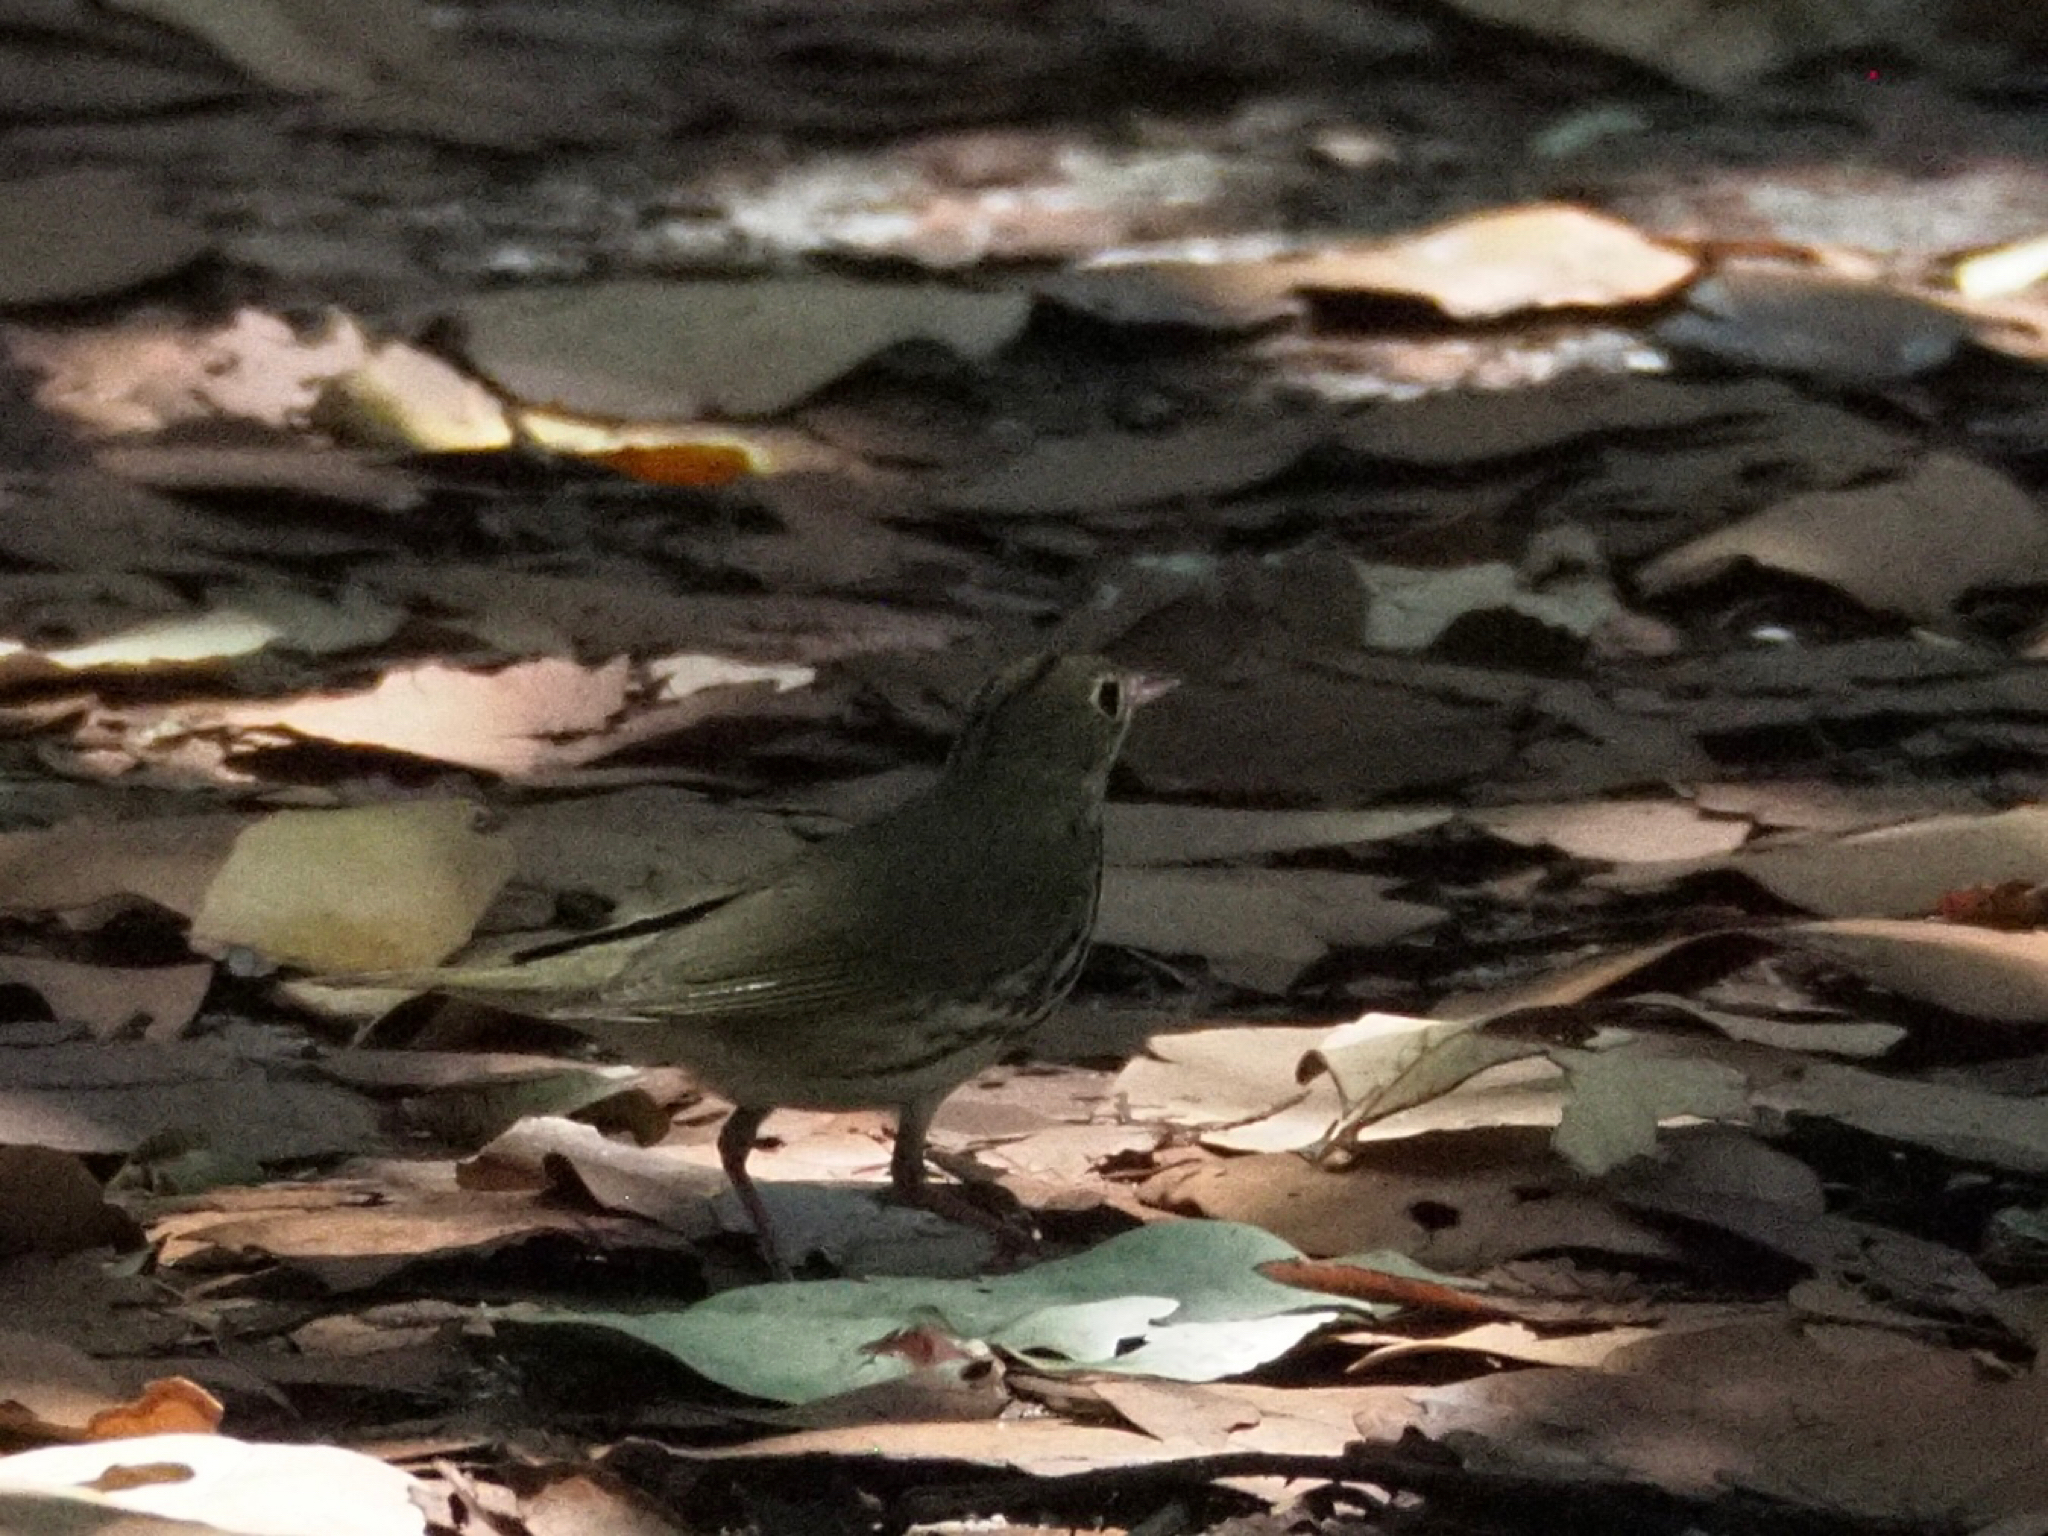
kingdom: Animalia
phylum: Chordata
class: Aves
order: Passeriformes
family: Parulidae
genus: Seiurus
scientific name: Seiurus aurocapilla
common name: Ovenbird
